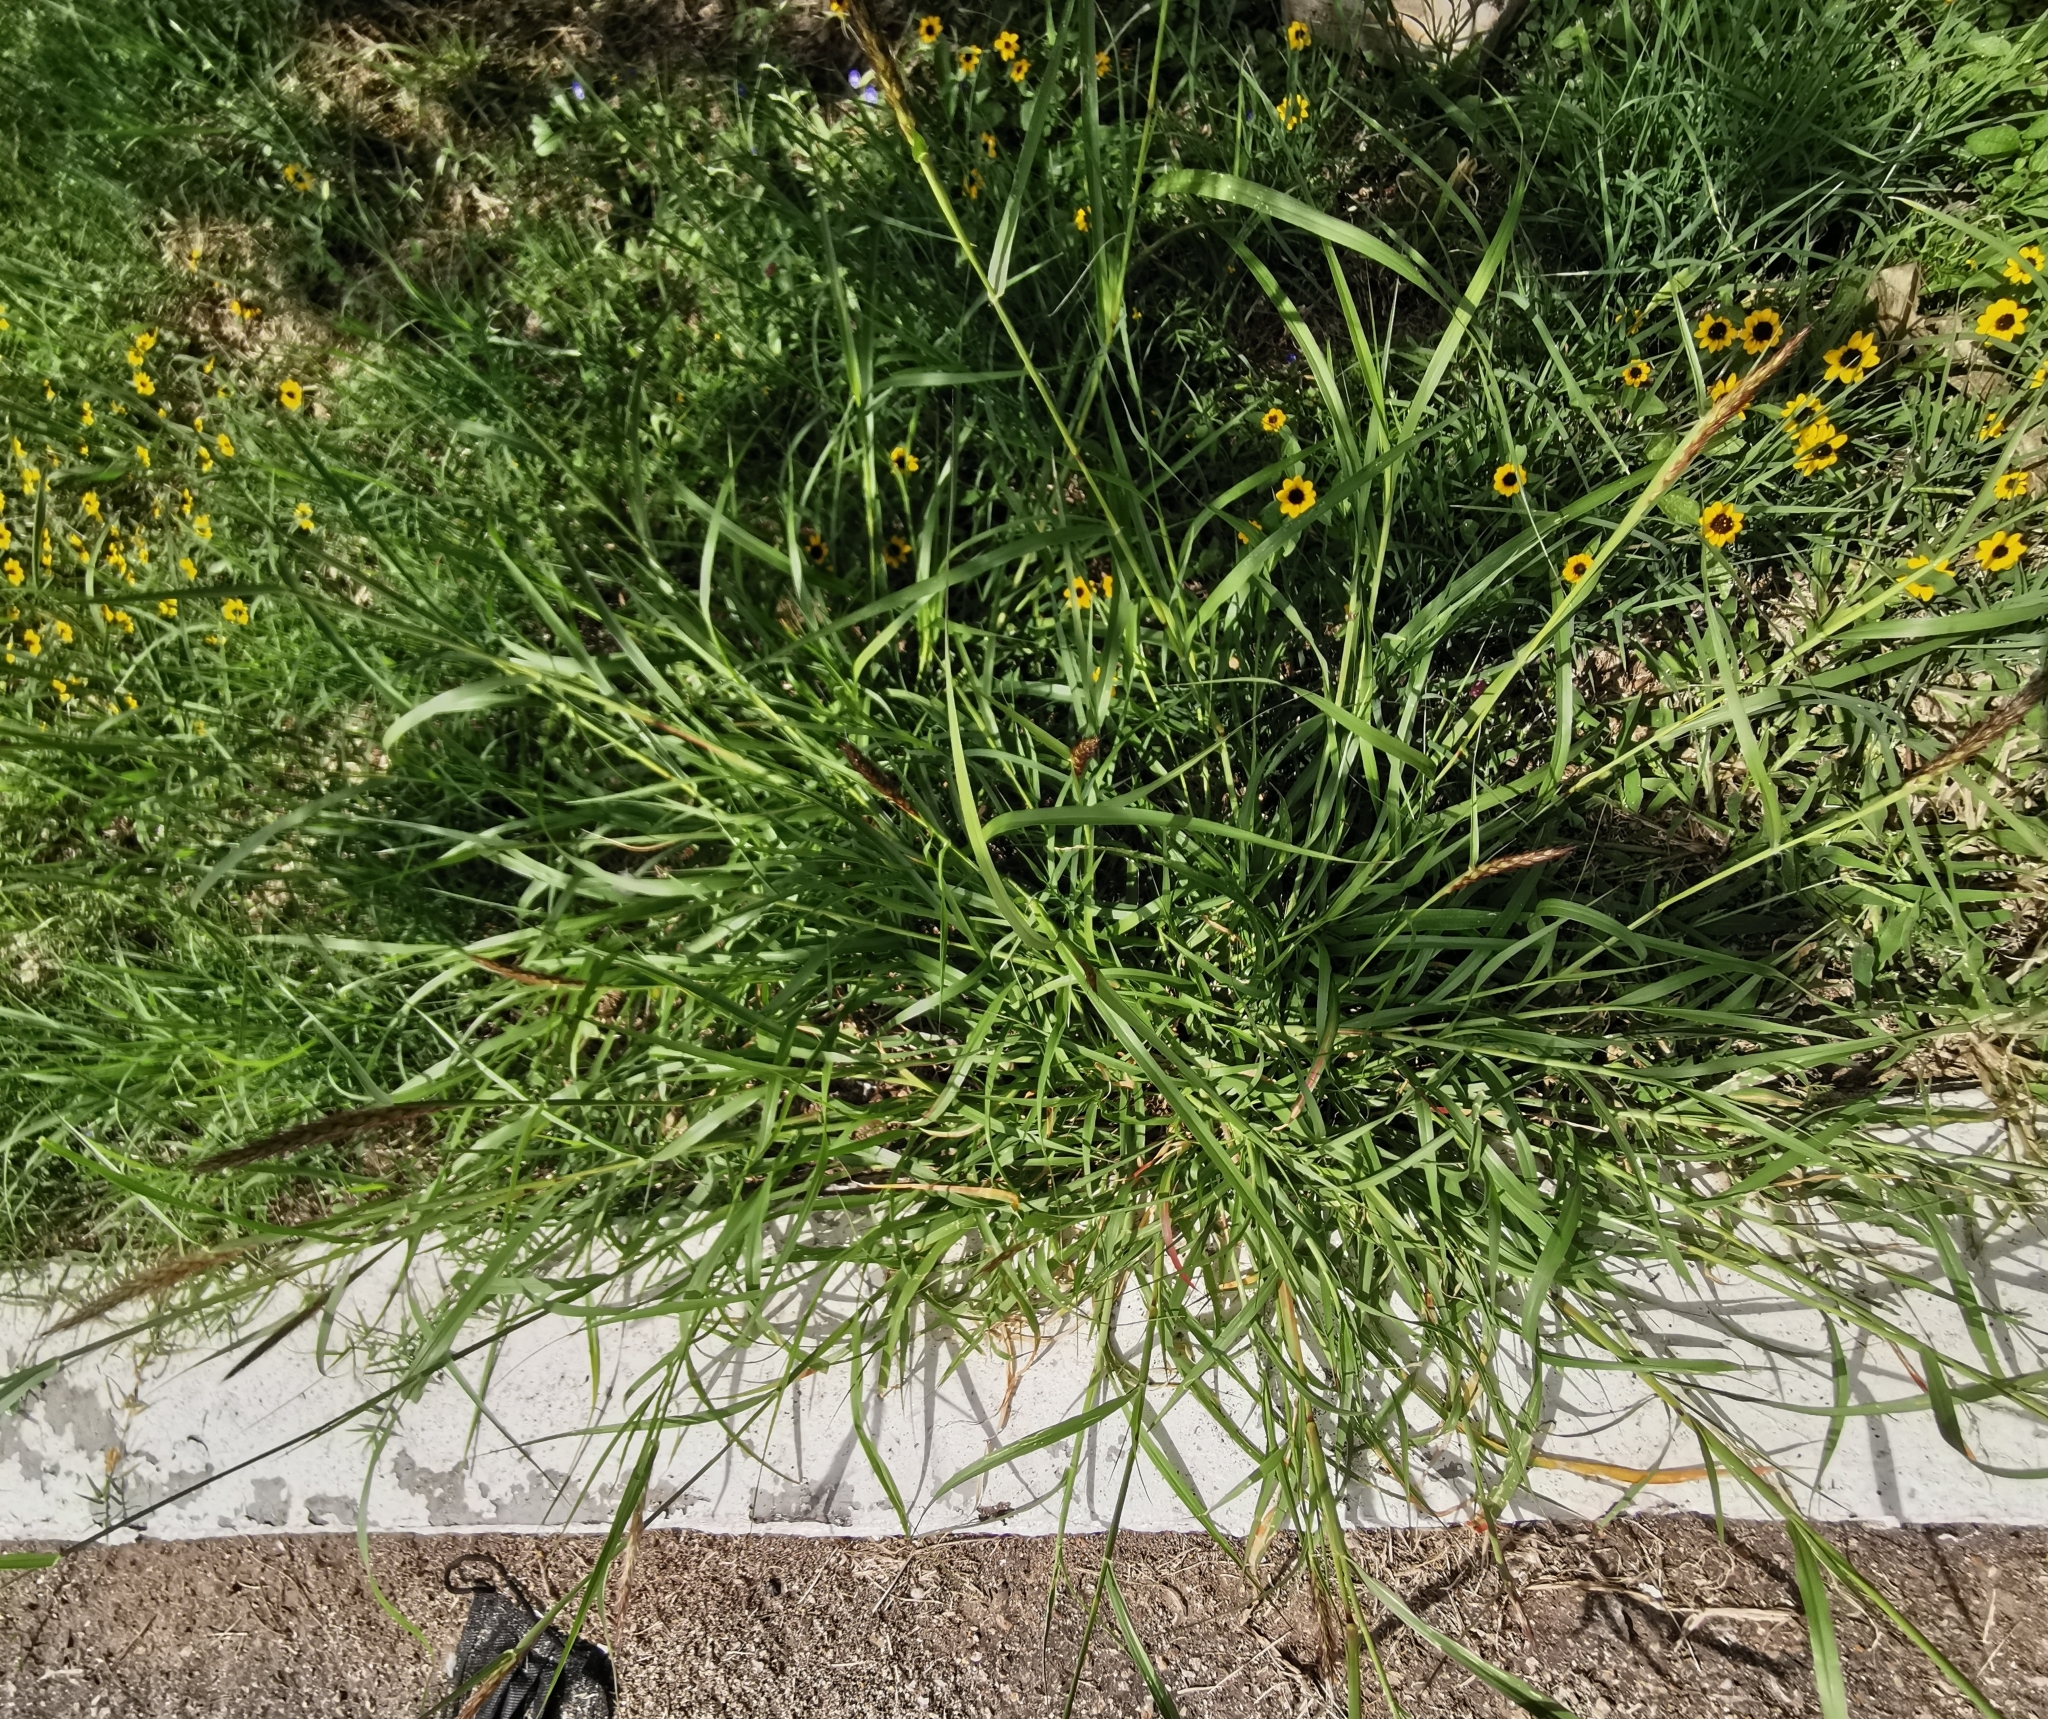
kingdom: Plantae
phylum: Tracheophyta
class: Liliopsida
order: Poales
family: Poaceae
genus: Cenchrus
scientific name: Cenchrus ciliaris
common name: Buffelgrass
